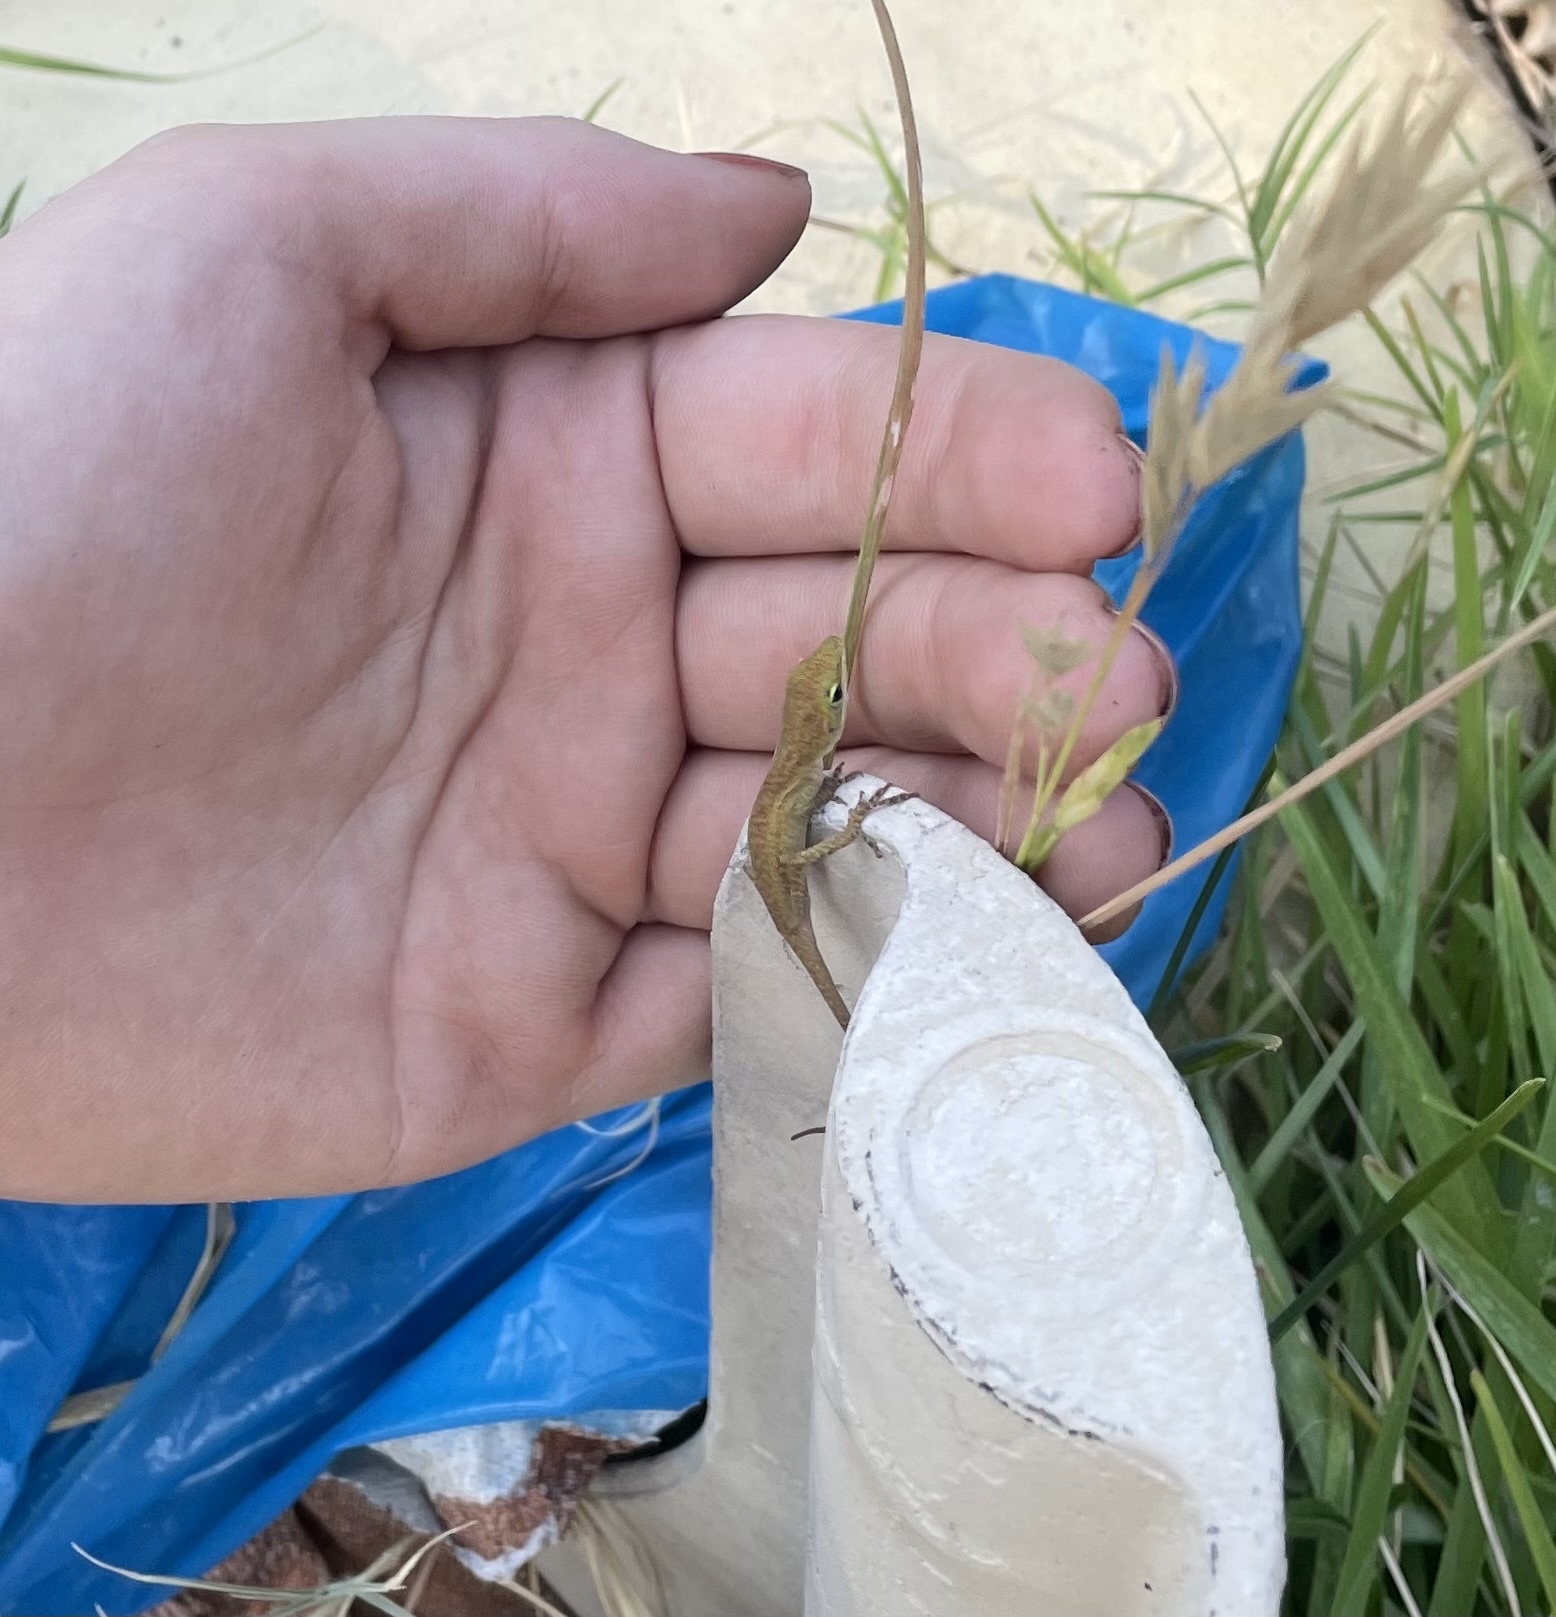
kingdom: Animalia
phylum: Chordata
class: Squamata
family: Dactyloidae
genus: Anolis
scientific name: Anolis carolinensis
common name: Green anole
